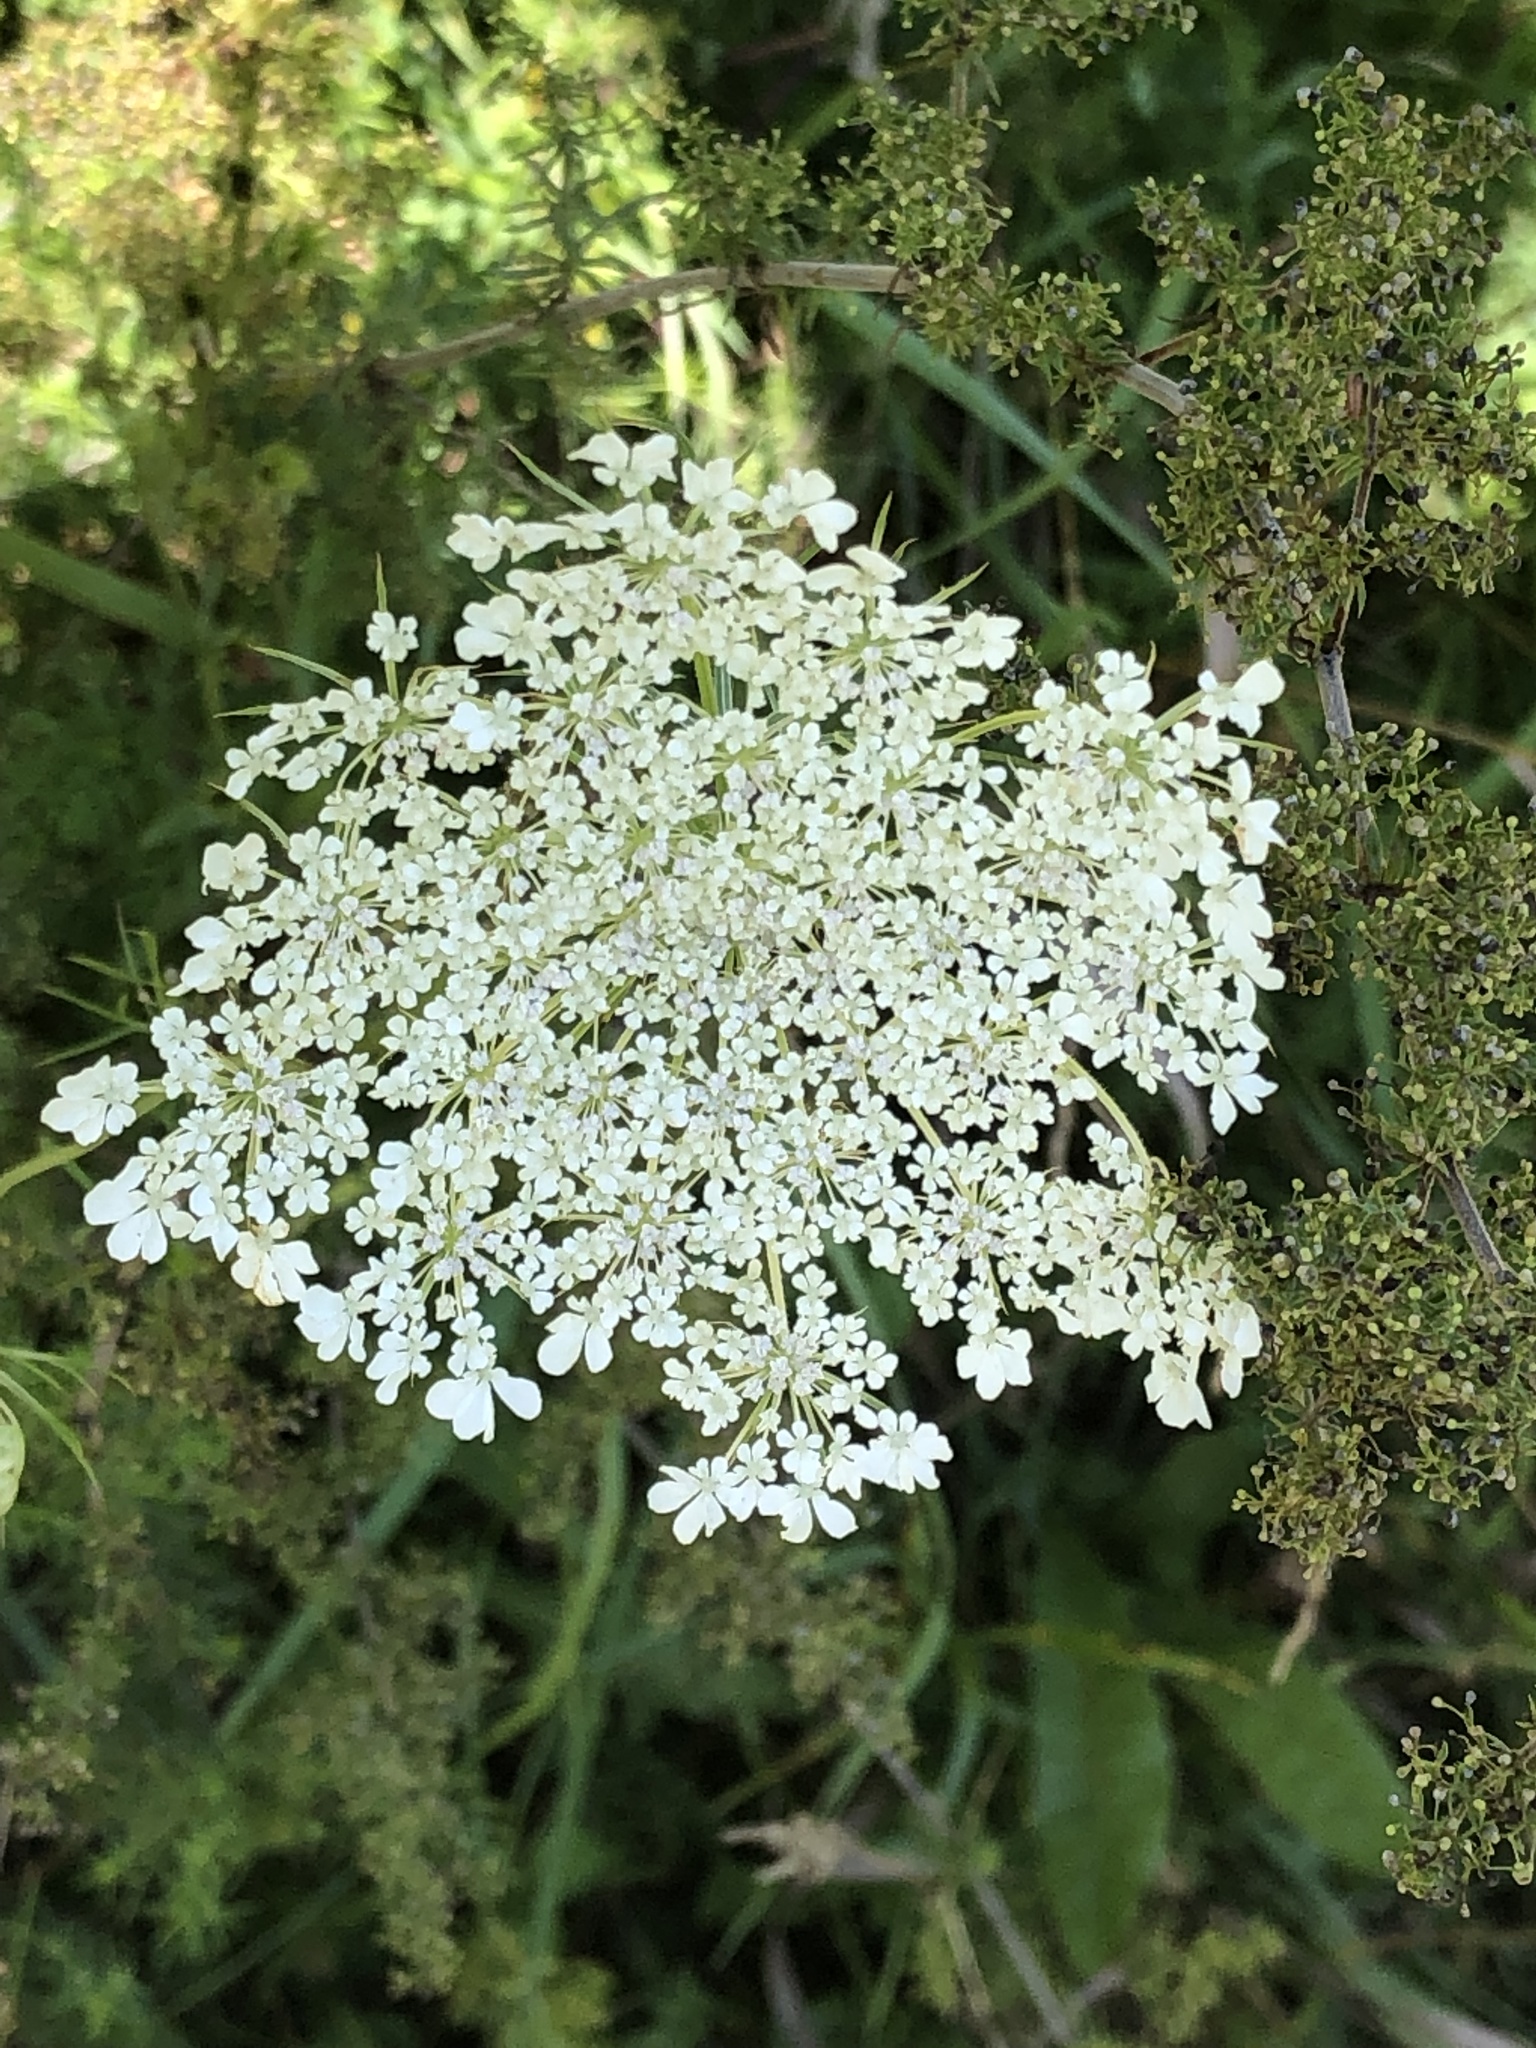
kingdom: Plantae
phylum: Tracheophyta
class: Magnoliopsida
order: Apiales
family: Apiaceae
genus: Daucus
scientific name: Daucus carota
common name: Wild carrot
